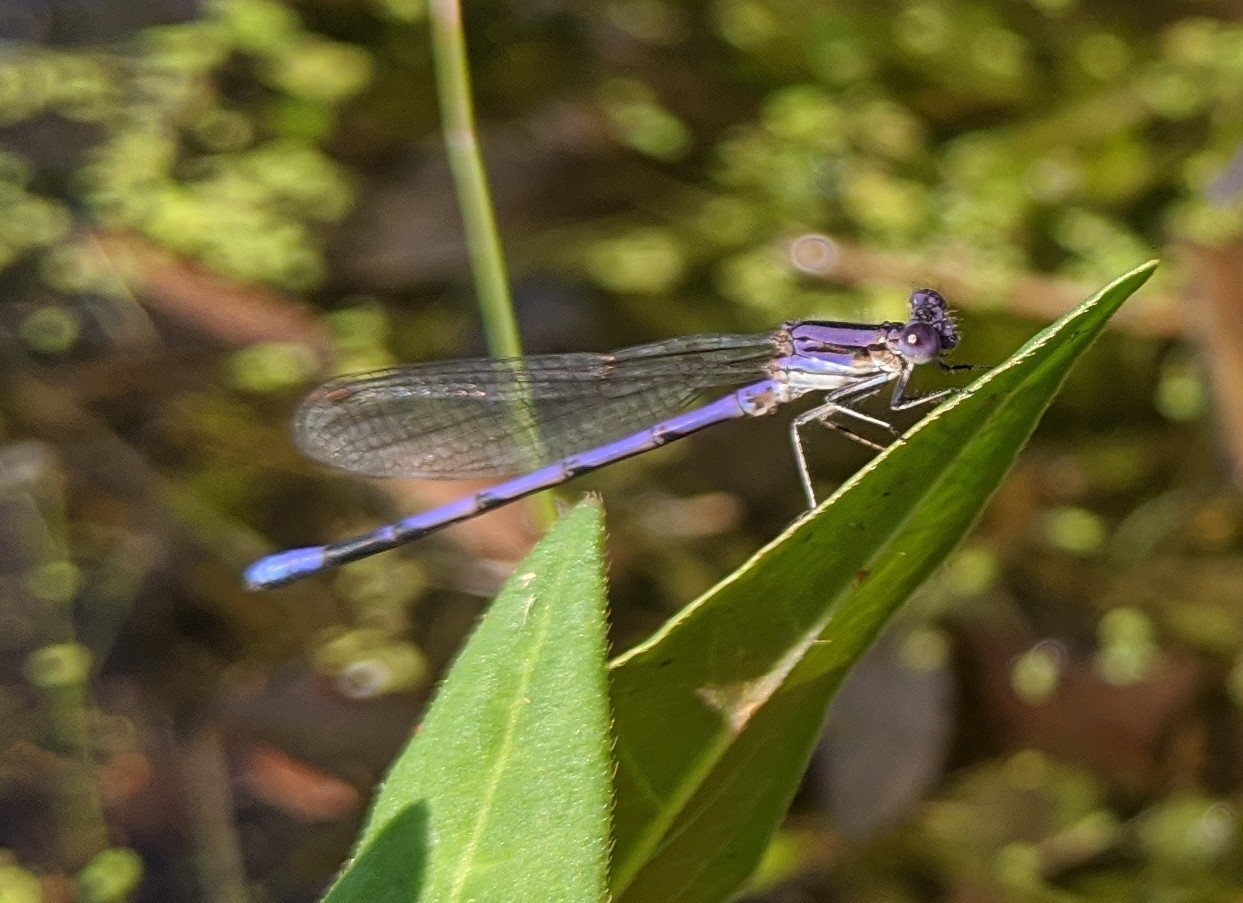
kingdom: Animalia
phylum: Arthropoda
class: Insecta
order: Odonata
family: Coenagrionidae
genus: Argia
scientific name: Argia fumipennis
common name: Variable dancer
